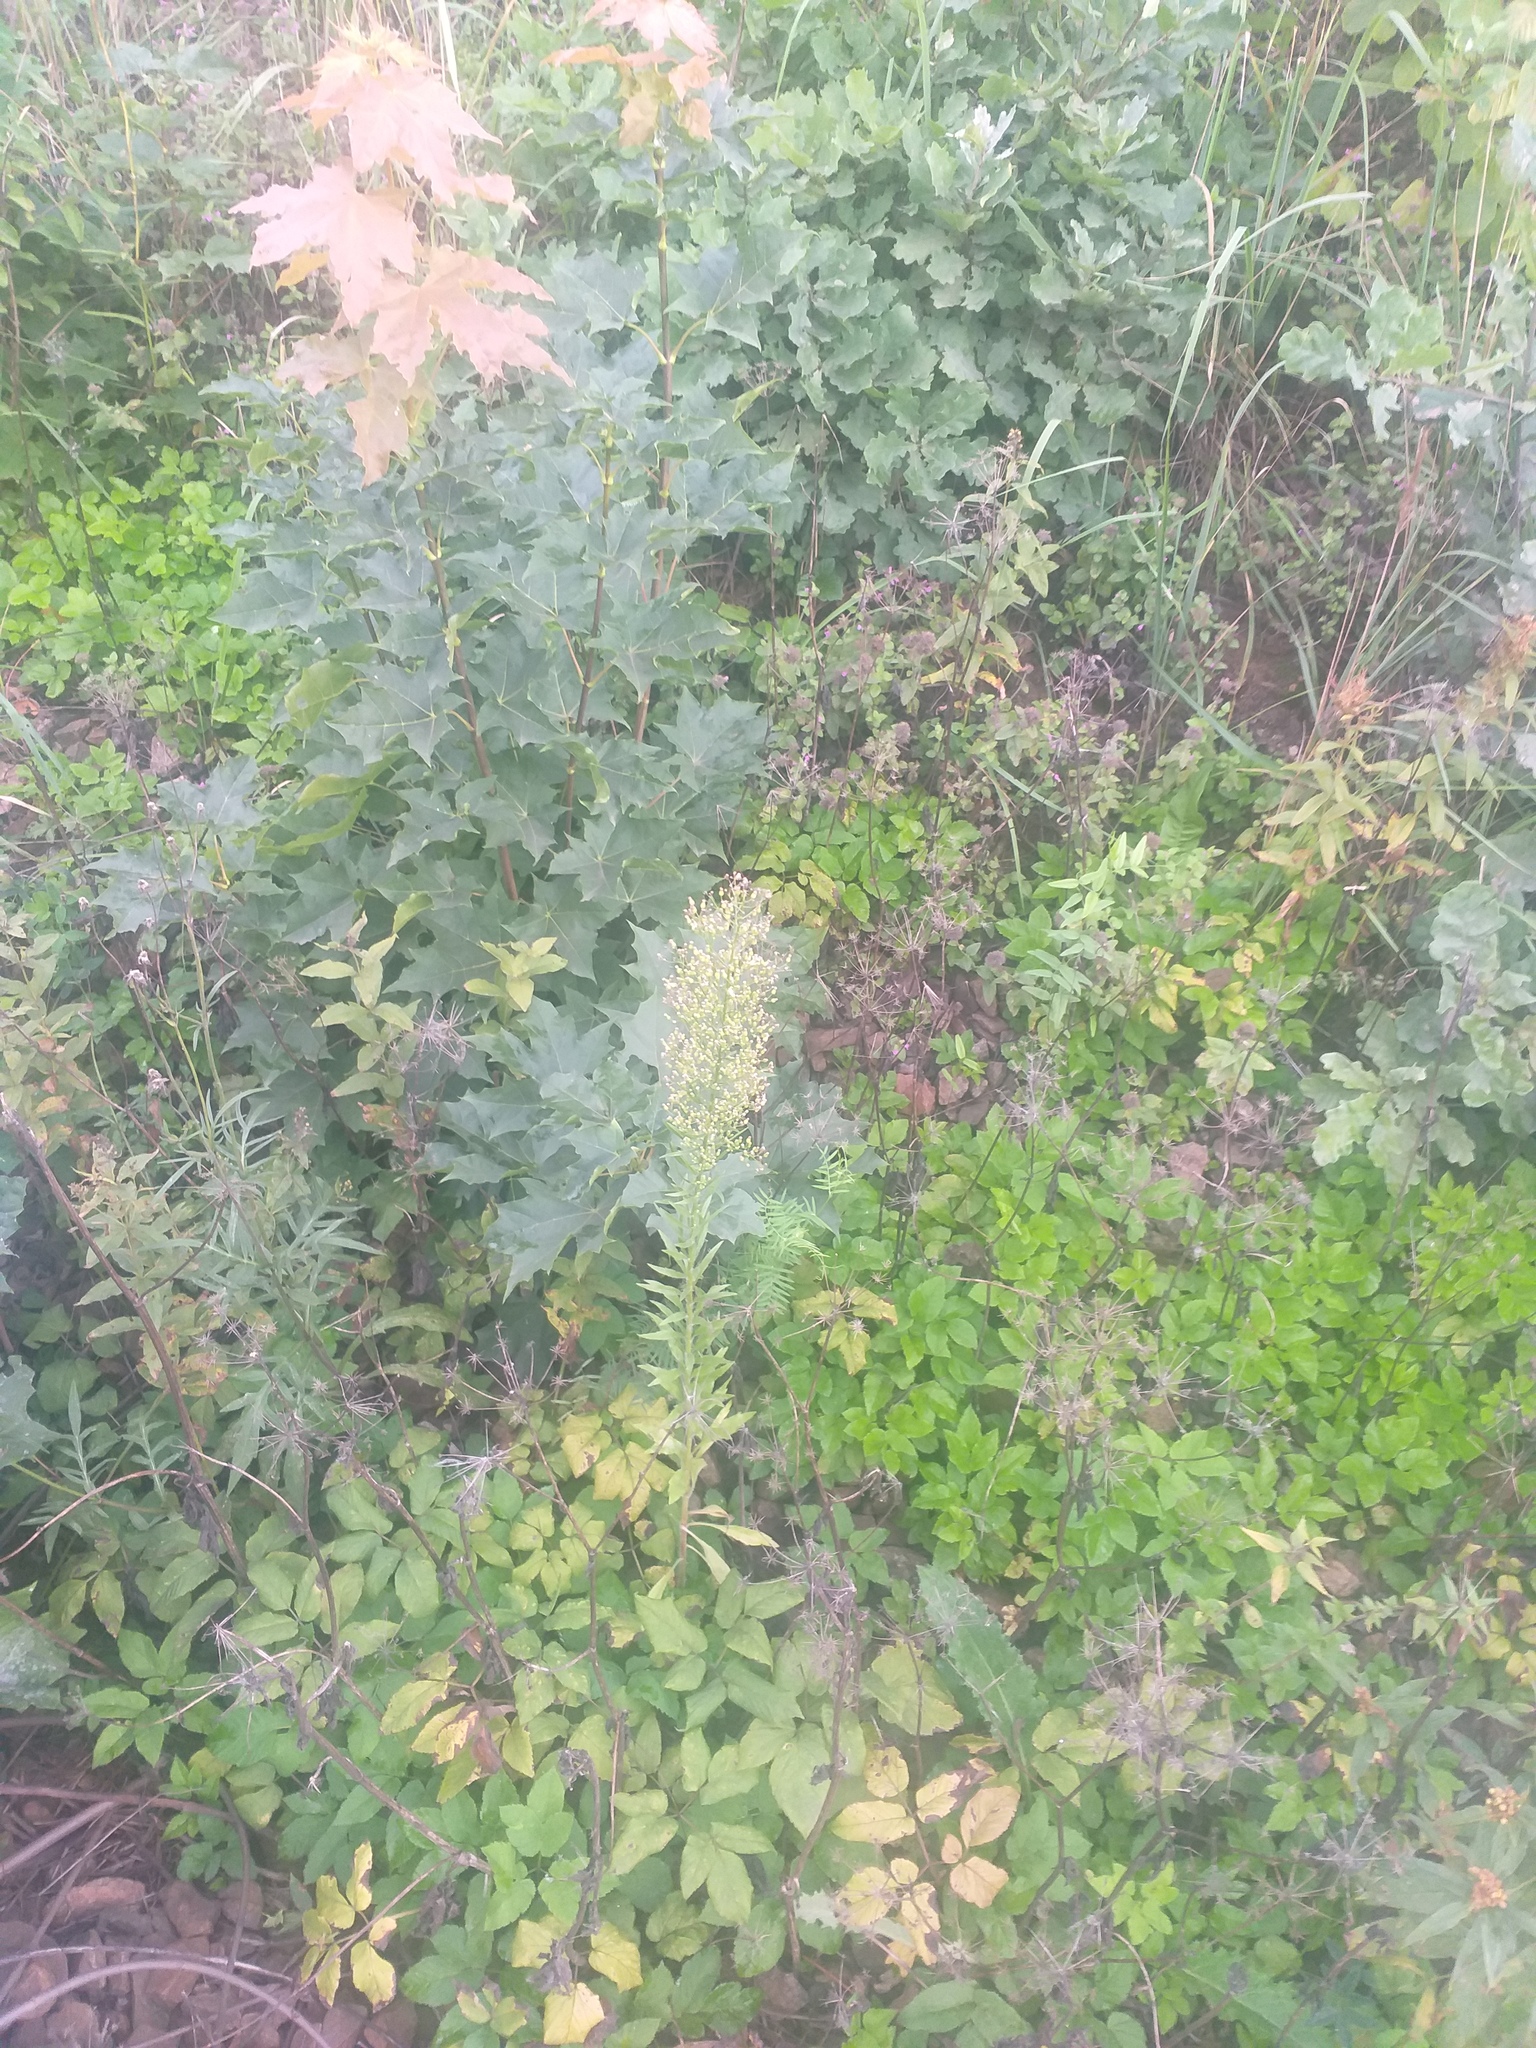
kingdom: Plantae
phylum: Tracheophyta
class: Magnoliopsida
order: Asterales
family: Asteraceae
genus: Erigeron
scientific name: Erigeron canadensis
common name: Canadian fleabane
